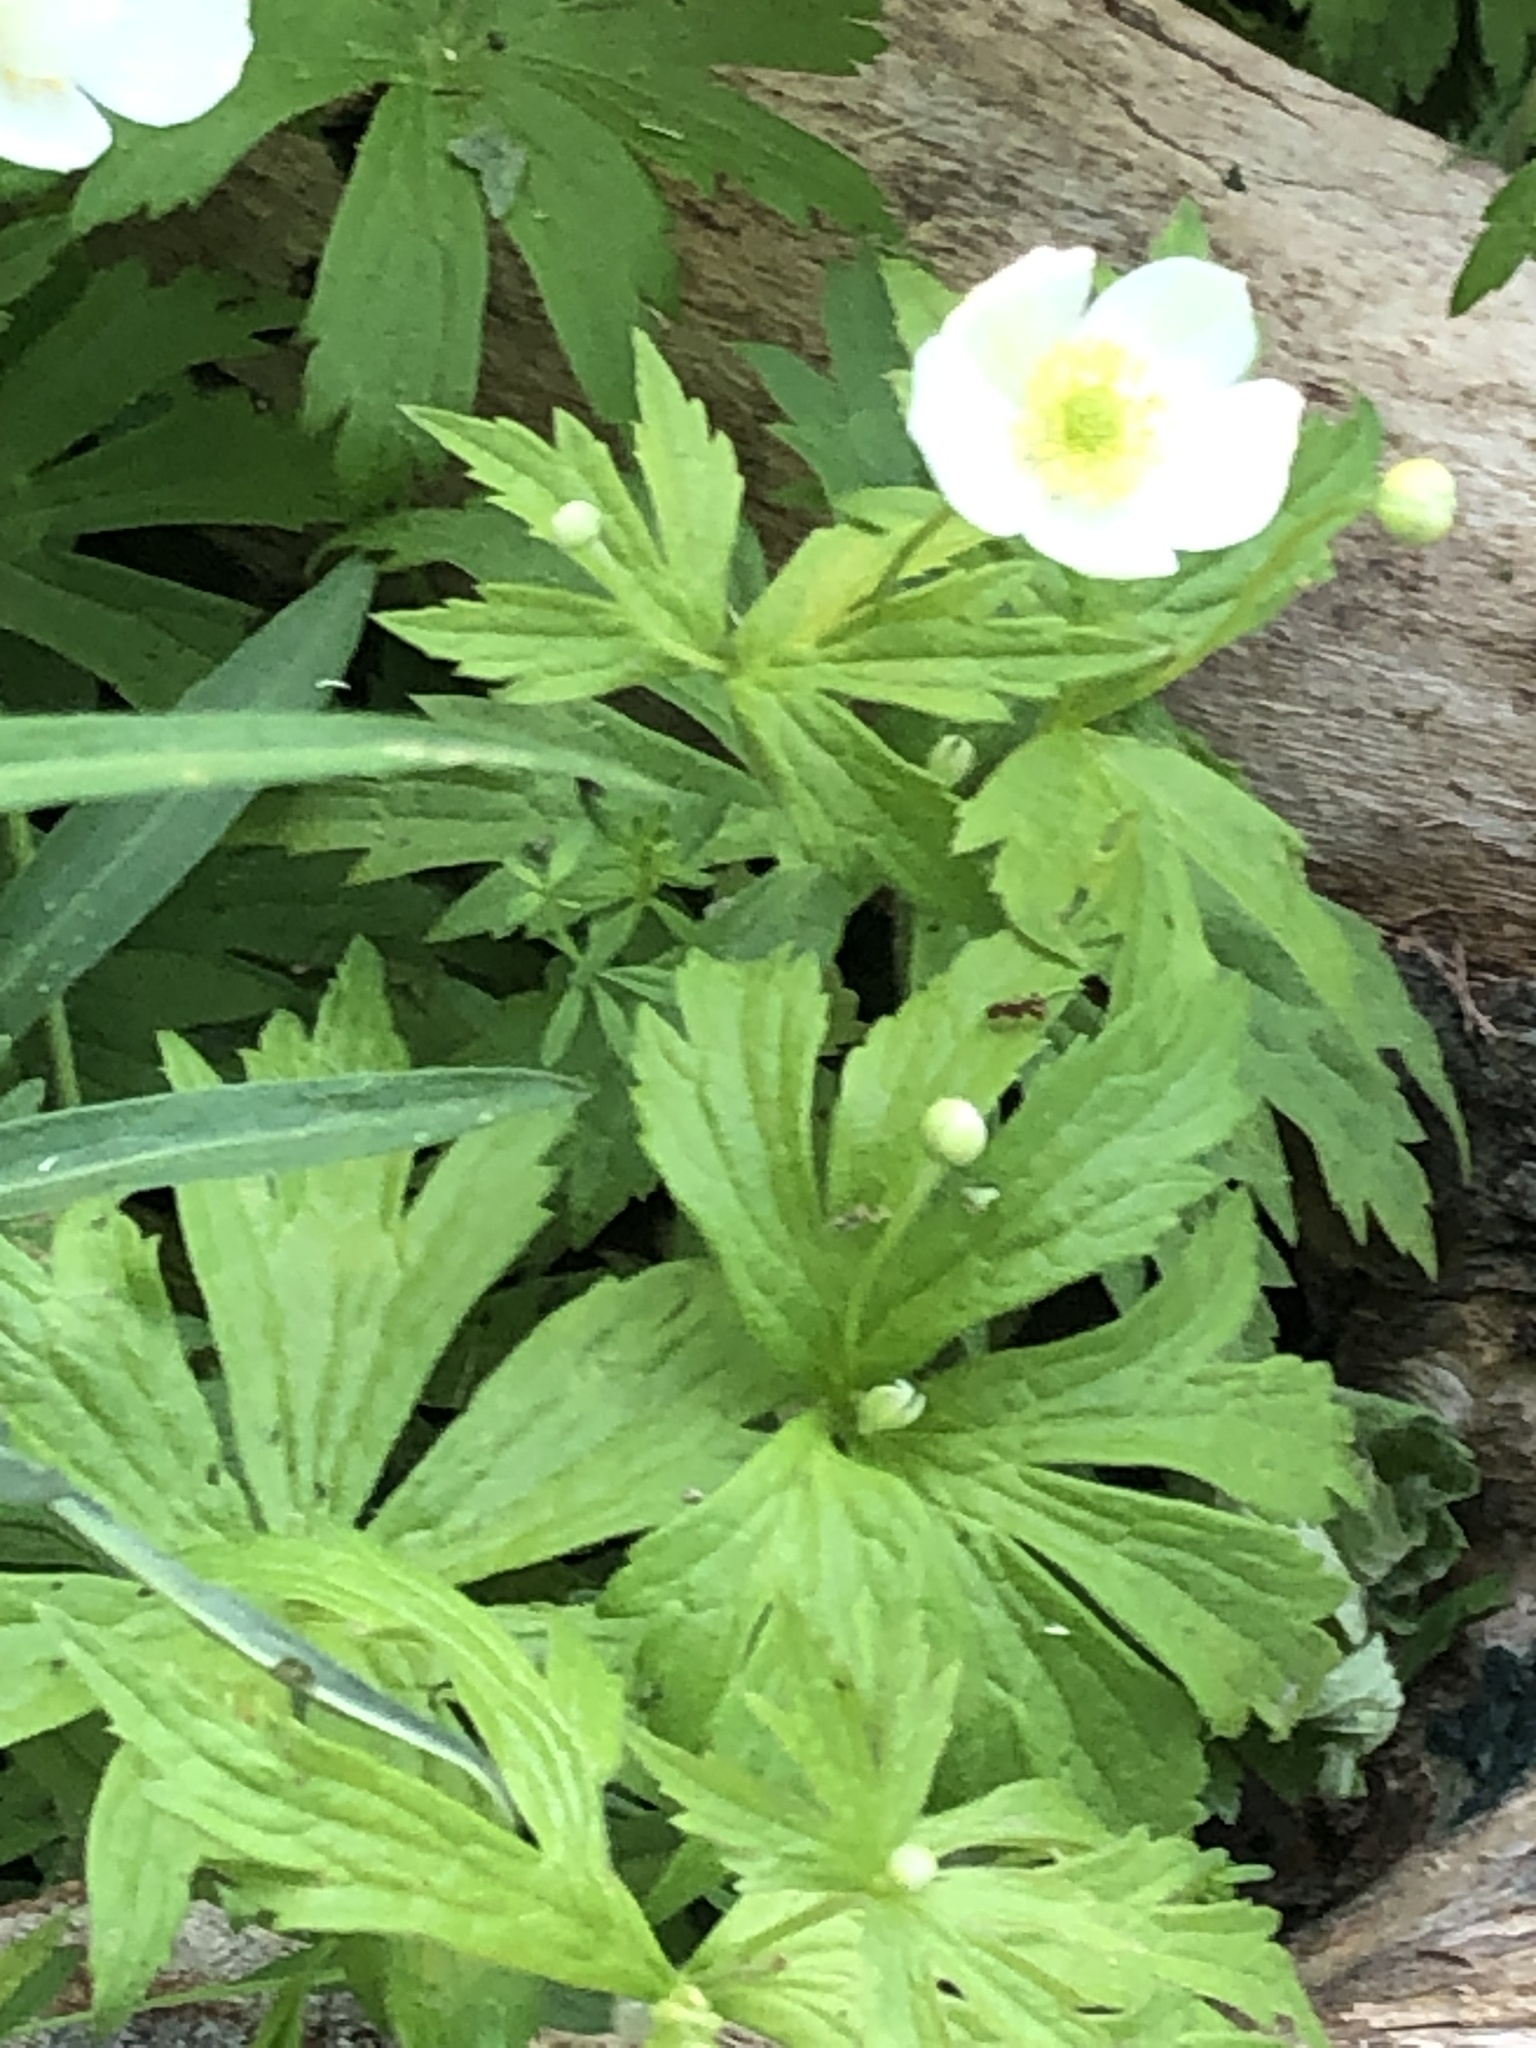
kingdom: Plantae
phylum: Tracheophyta
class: Magnoliopsida
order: Ranunculales
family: Ranunculaceae
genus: Anemonastrum
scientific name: Anemonastrum canadense
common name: Canada anemone
